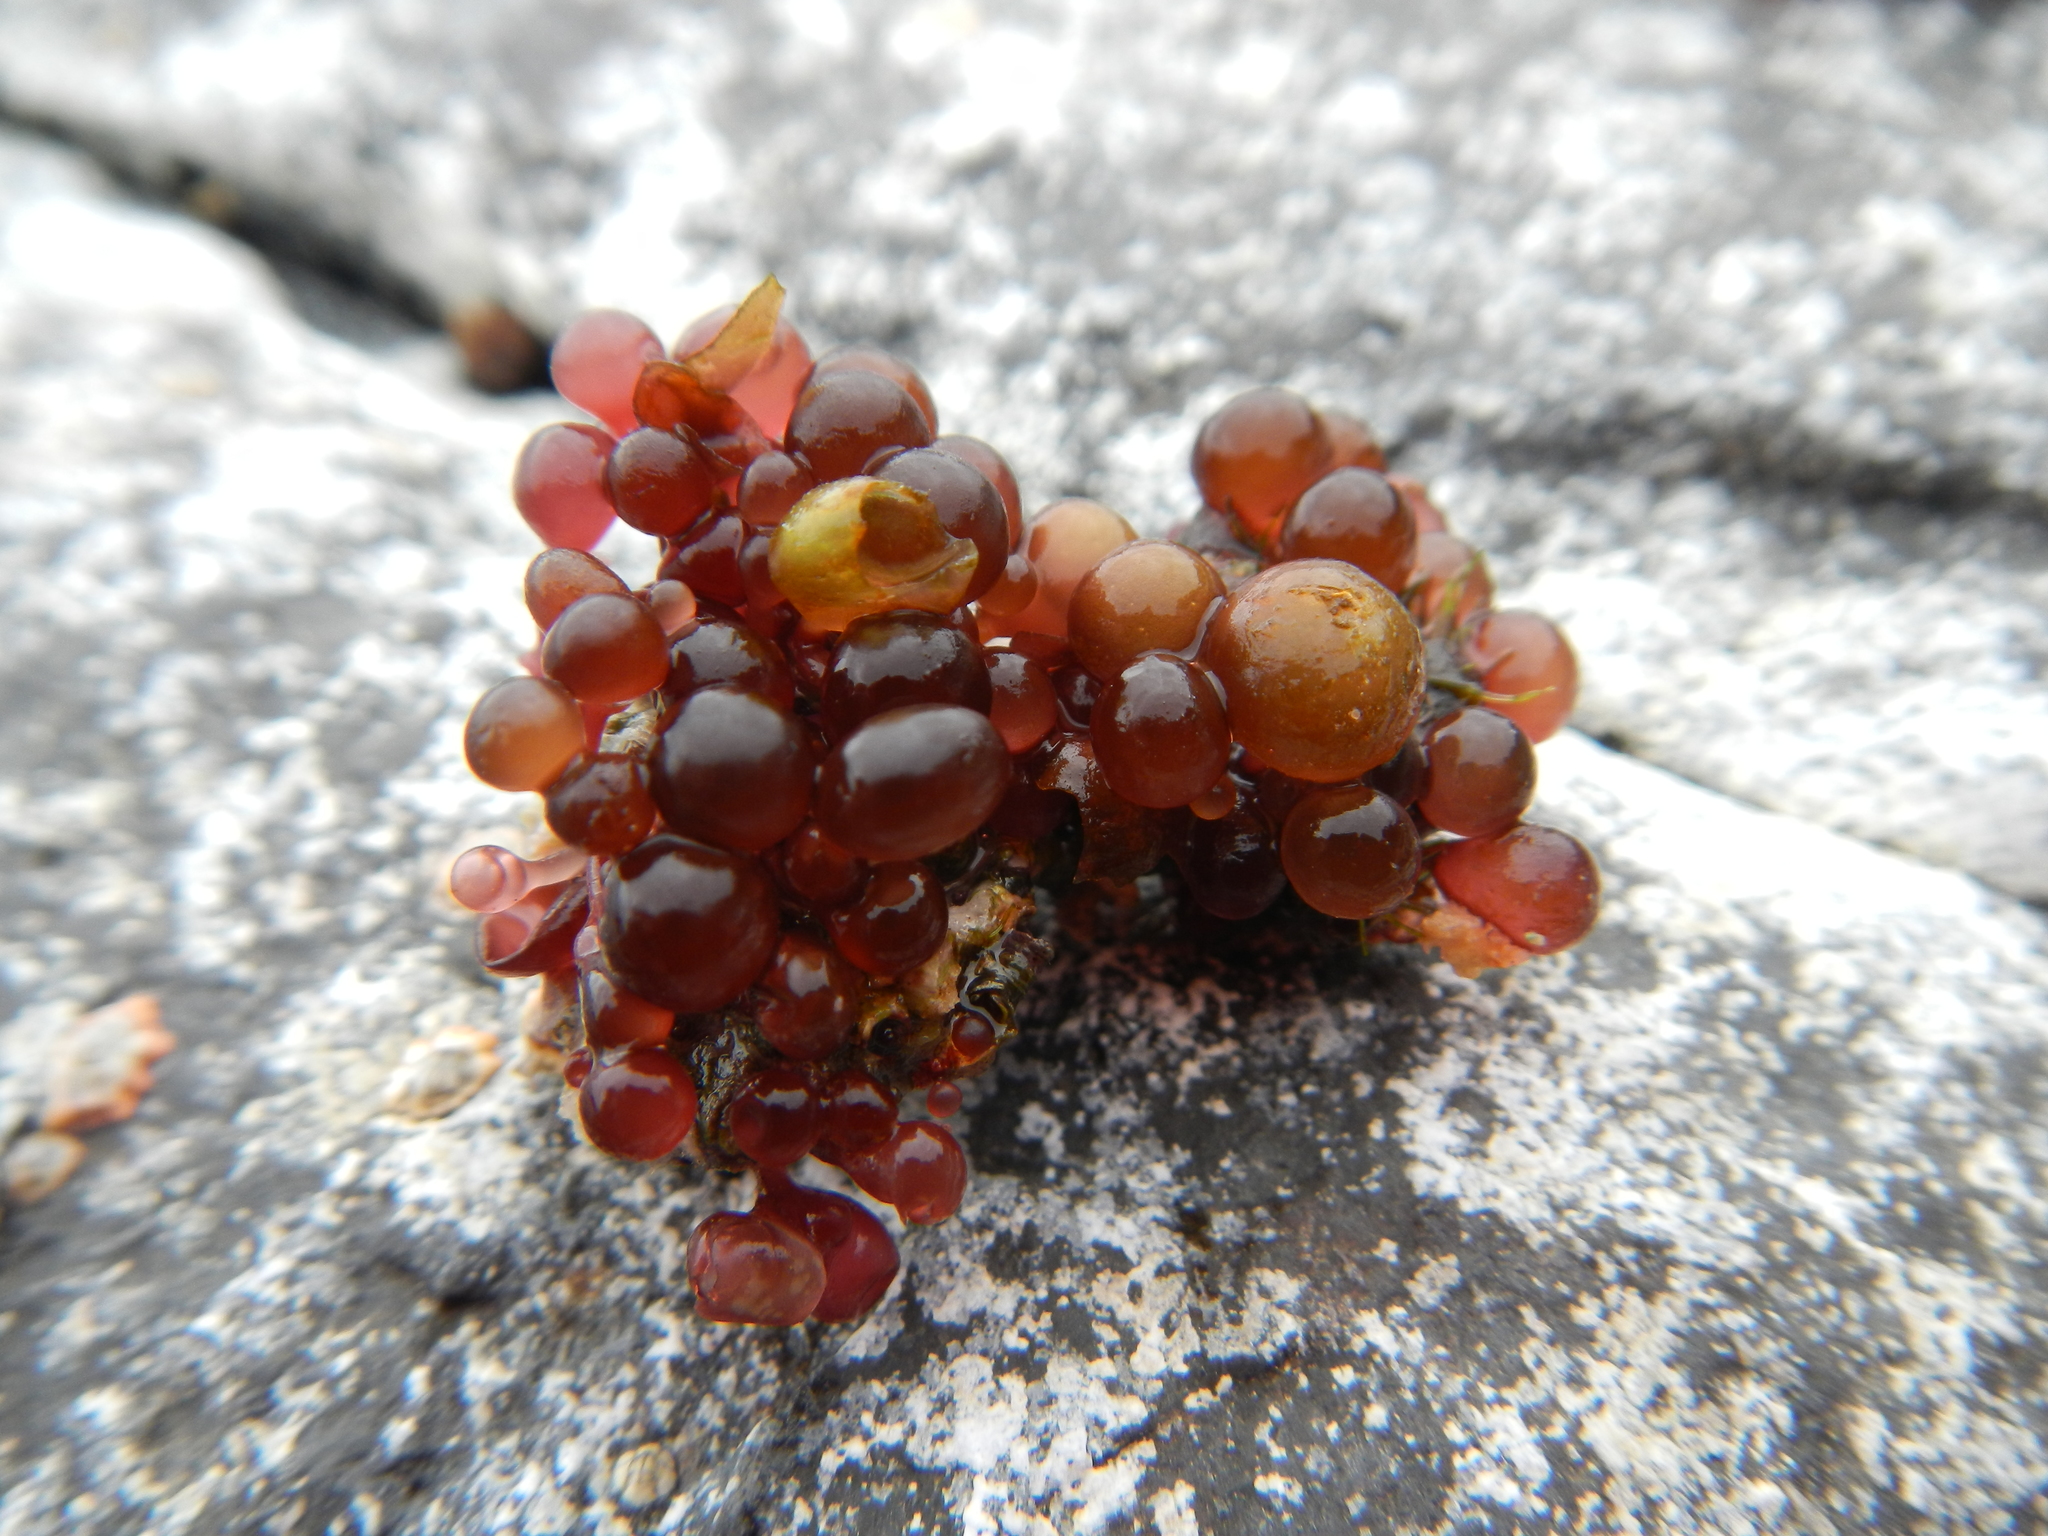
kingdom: Plantae
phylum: Rhodophyta
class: Florideophyceae
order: Rhodymeniales
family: Rhodymeniaceae
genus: Botryocladia
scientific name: Botryocladia skottsbergii
